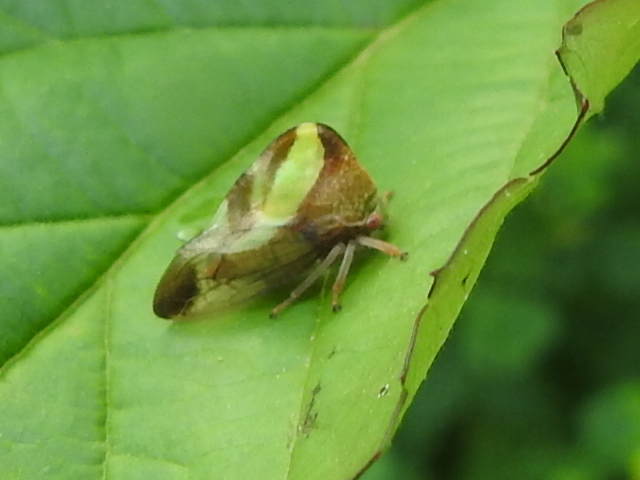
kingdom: Animalia
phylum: Arthropoda
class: Insecta
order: Hemiptera
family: Membracidae
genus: Smilia
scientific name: Smilia camelus
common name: Camel treehopper
